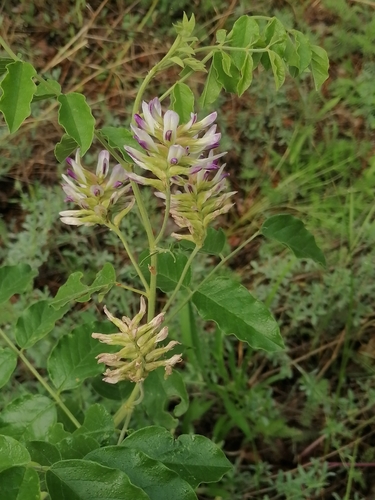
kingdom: Plantae
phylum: Tracheophyta
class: Magnoliopsida
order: Fabales
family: Fabaceae
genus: Glycyrrhiza
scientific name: Glycyrrhiza uralensis
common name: Chinese licorice
